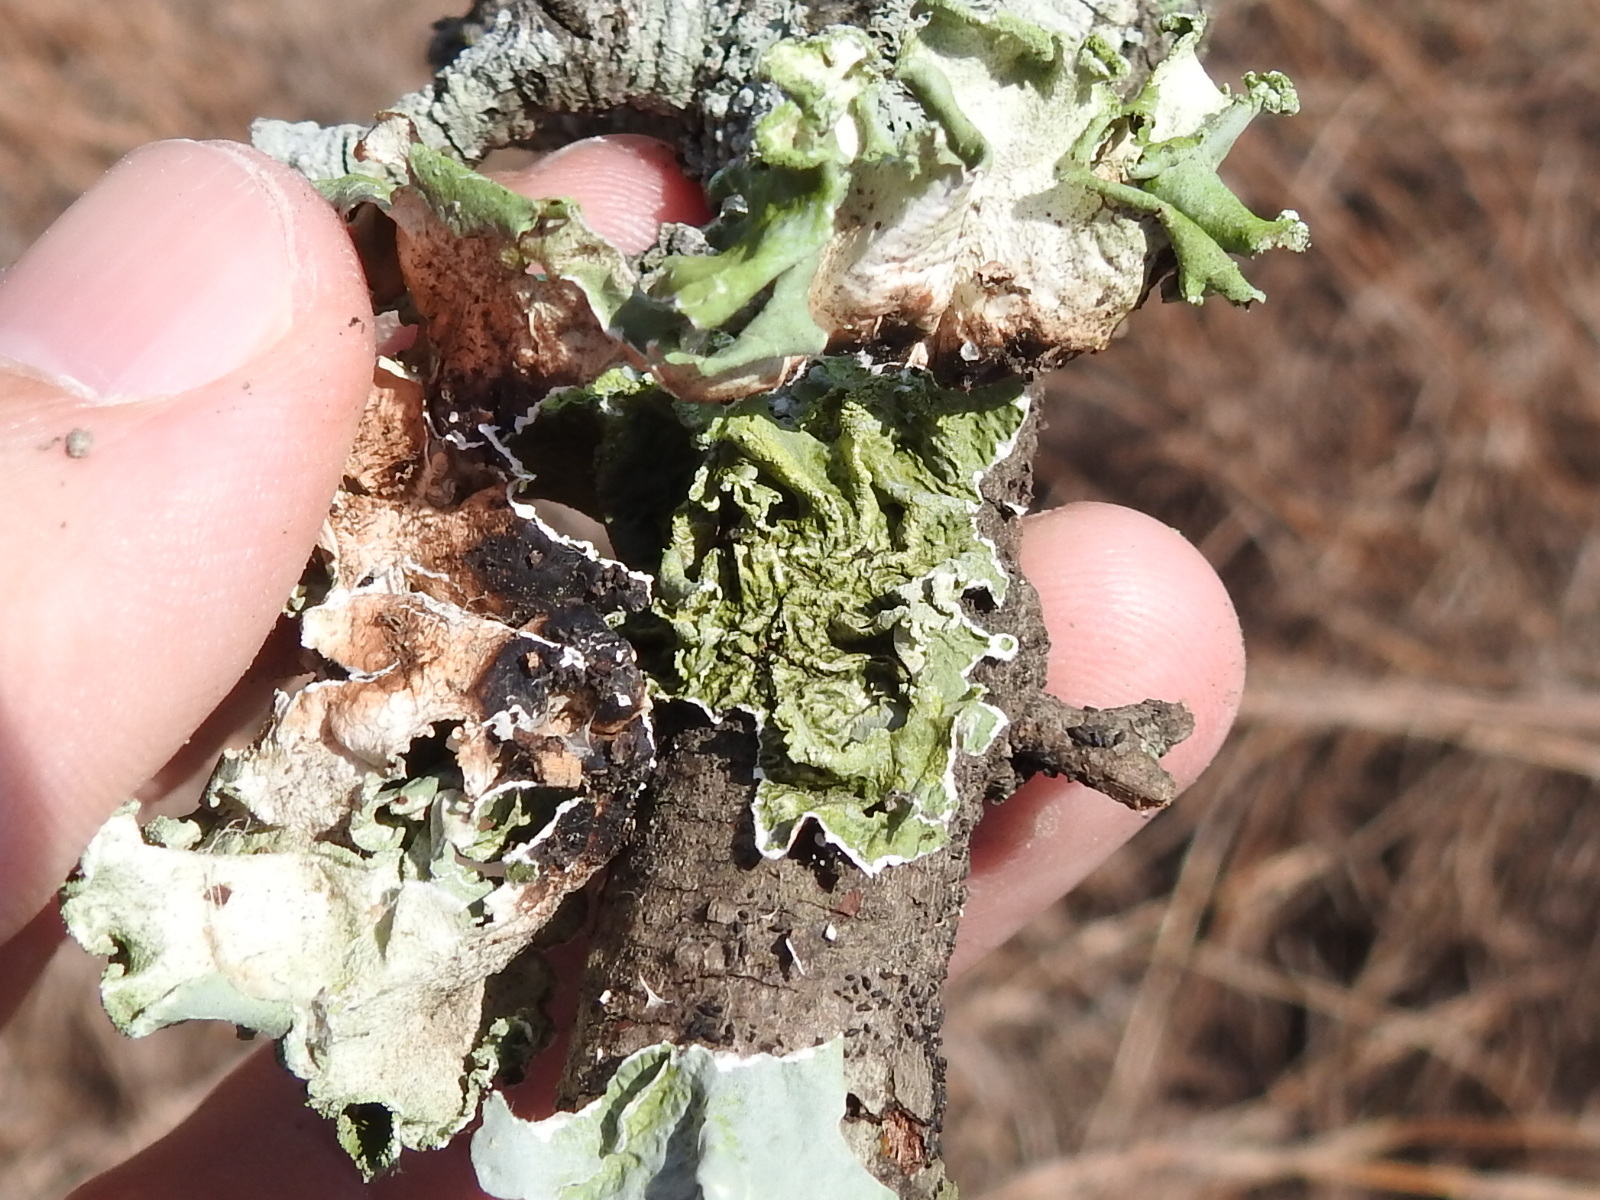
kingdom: Fungi
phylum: Ascomycota
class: Lecanoromycetes
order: Lecanorales
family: Parmeliaceae
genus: Parmotrema
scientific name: Parmotrema hypotropum
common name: Powdered ruffle lichen
